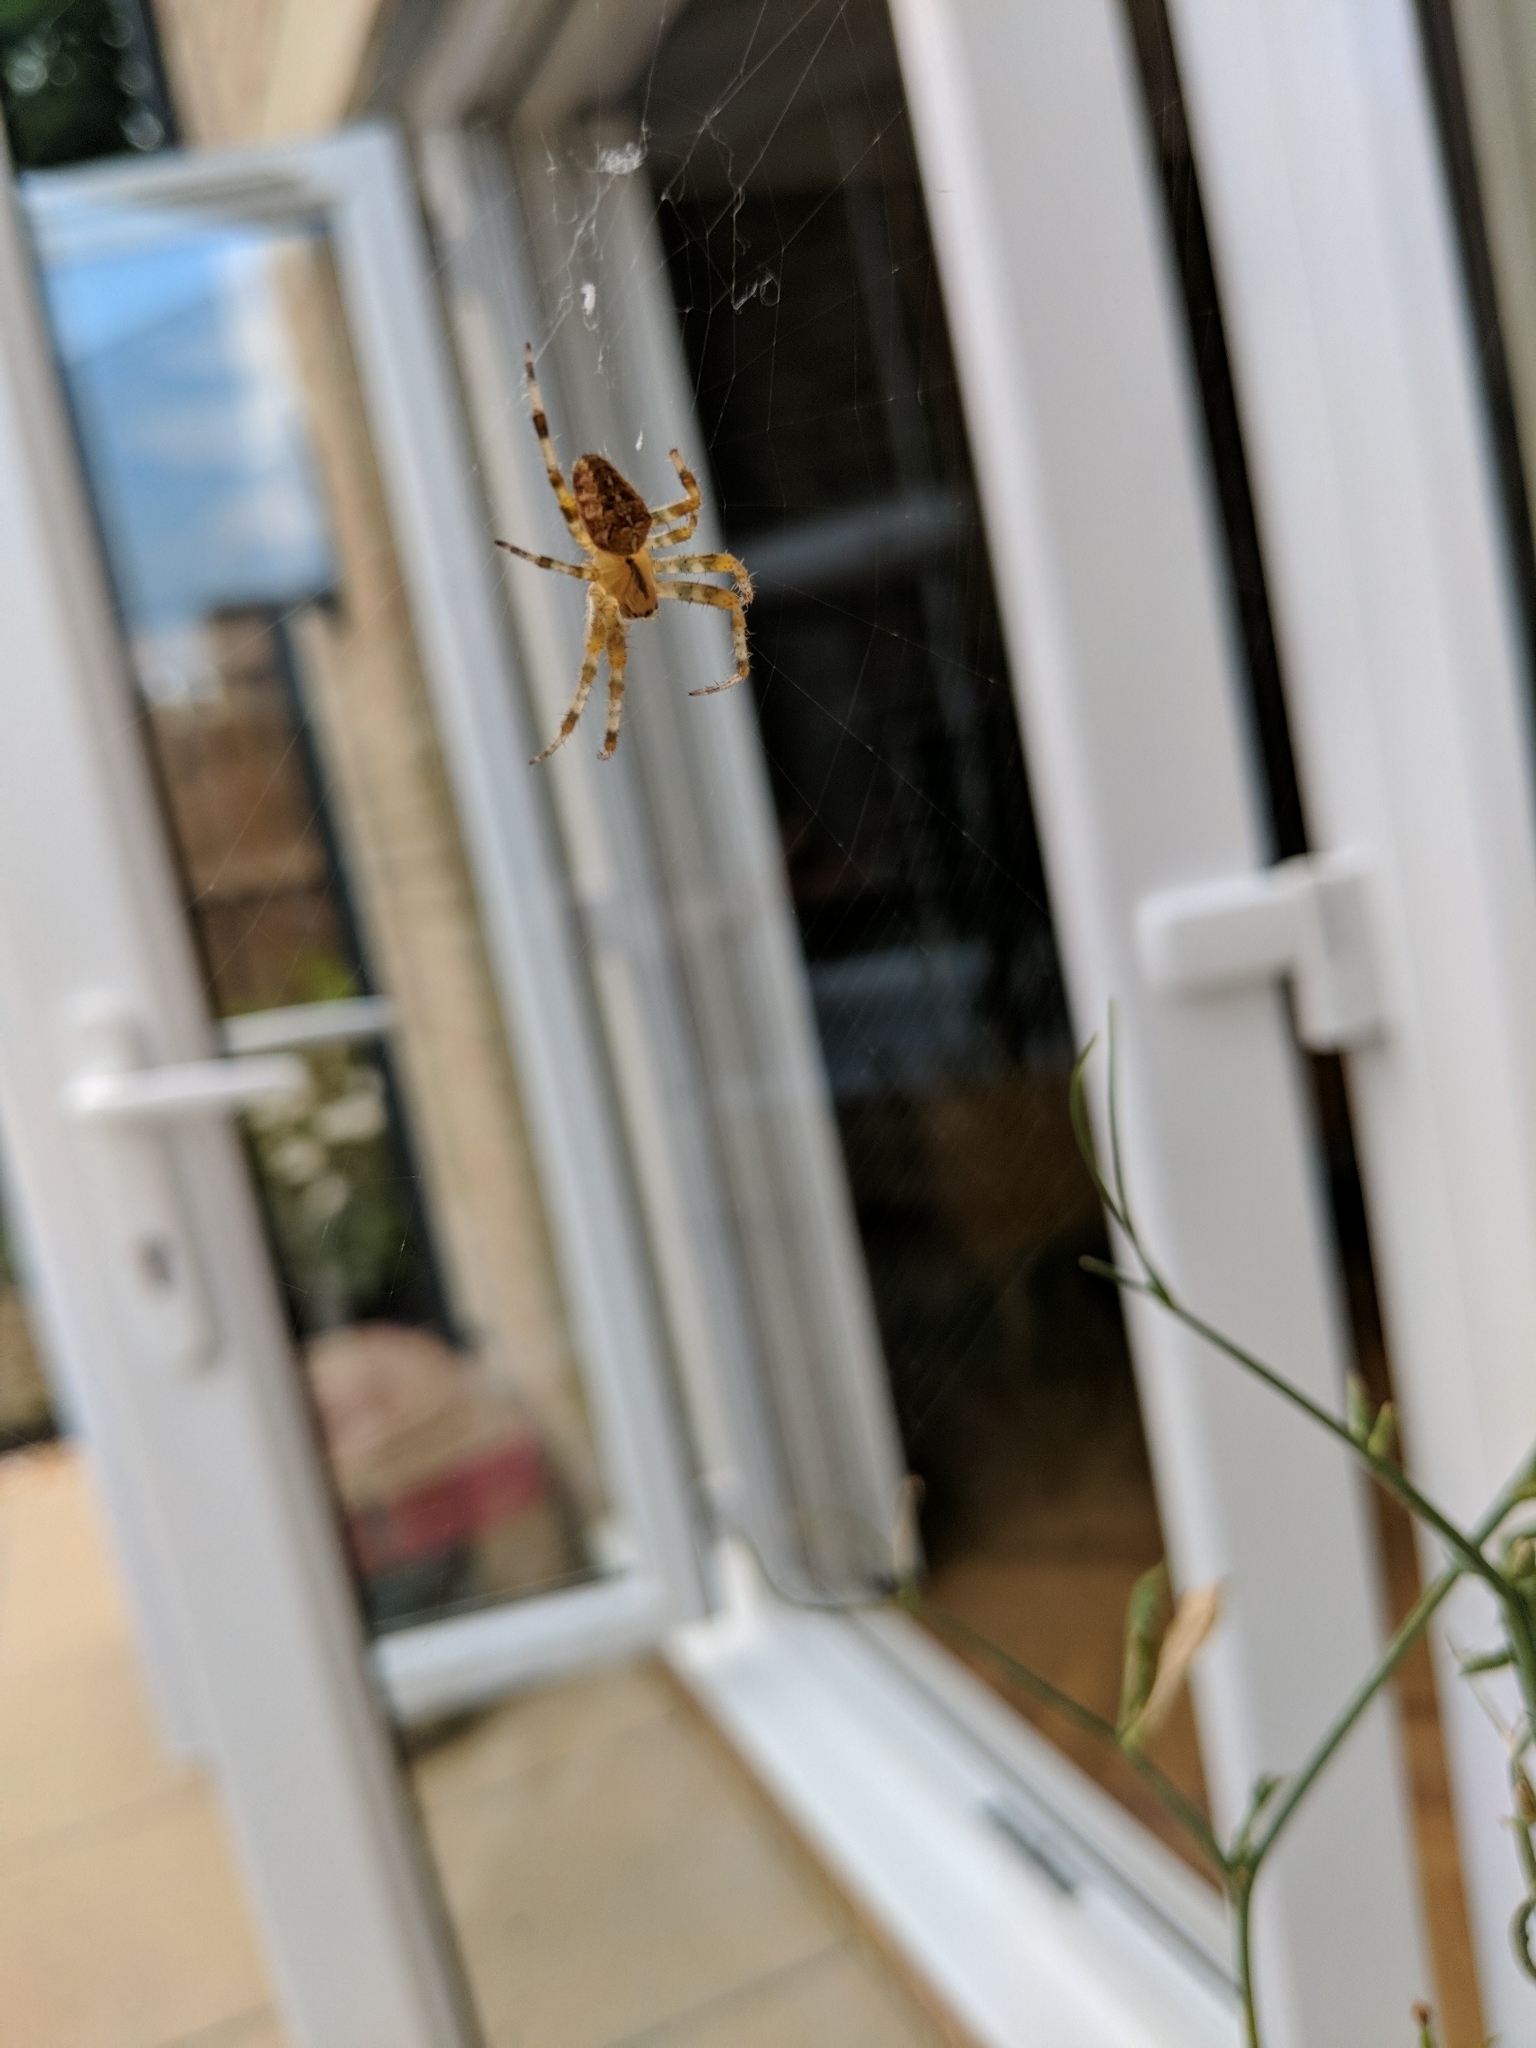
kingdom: Animalia
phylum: Arthropoda
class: Arachnida
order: Araneae
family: Araneidae
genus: Araneus
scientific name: Araneus diadematus
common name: Cross orbweaver
